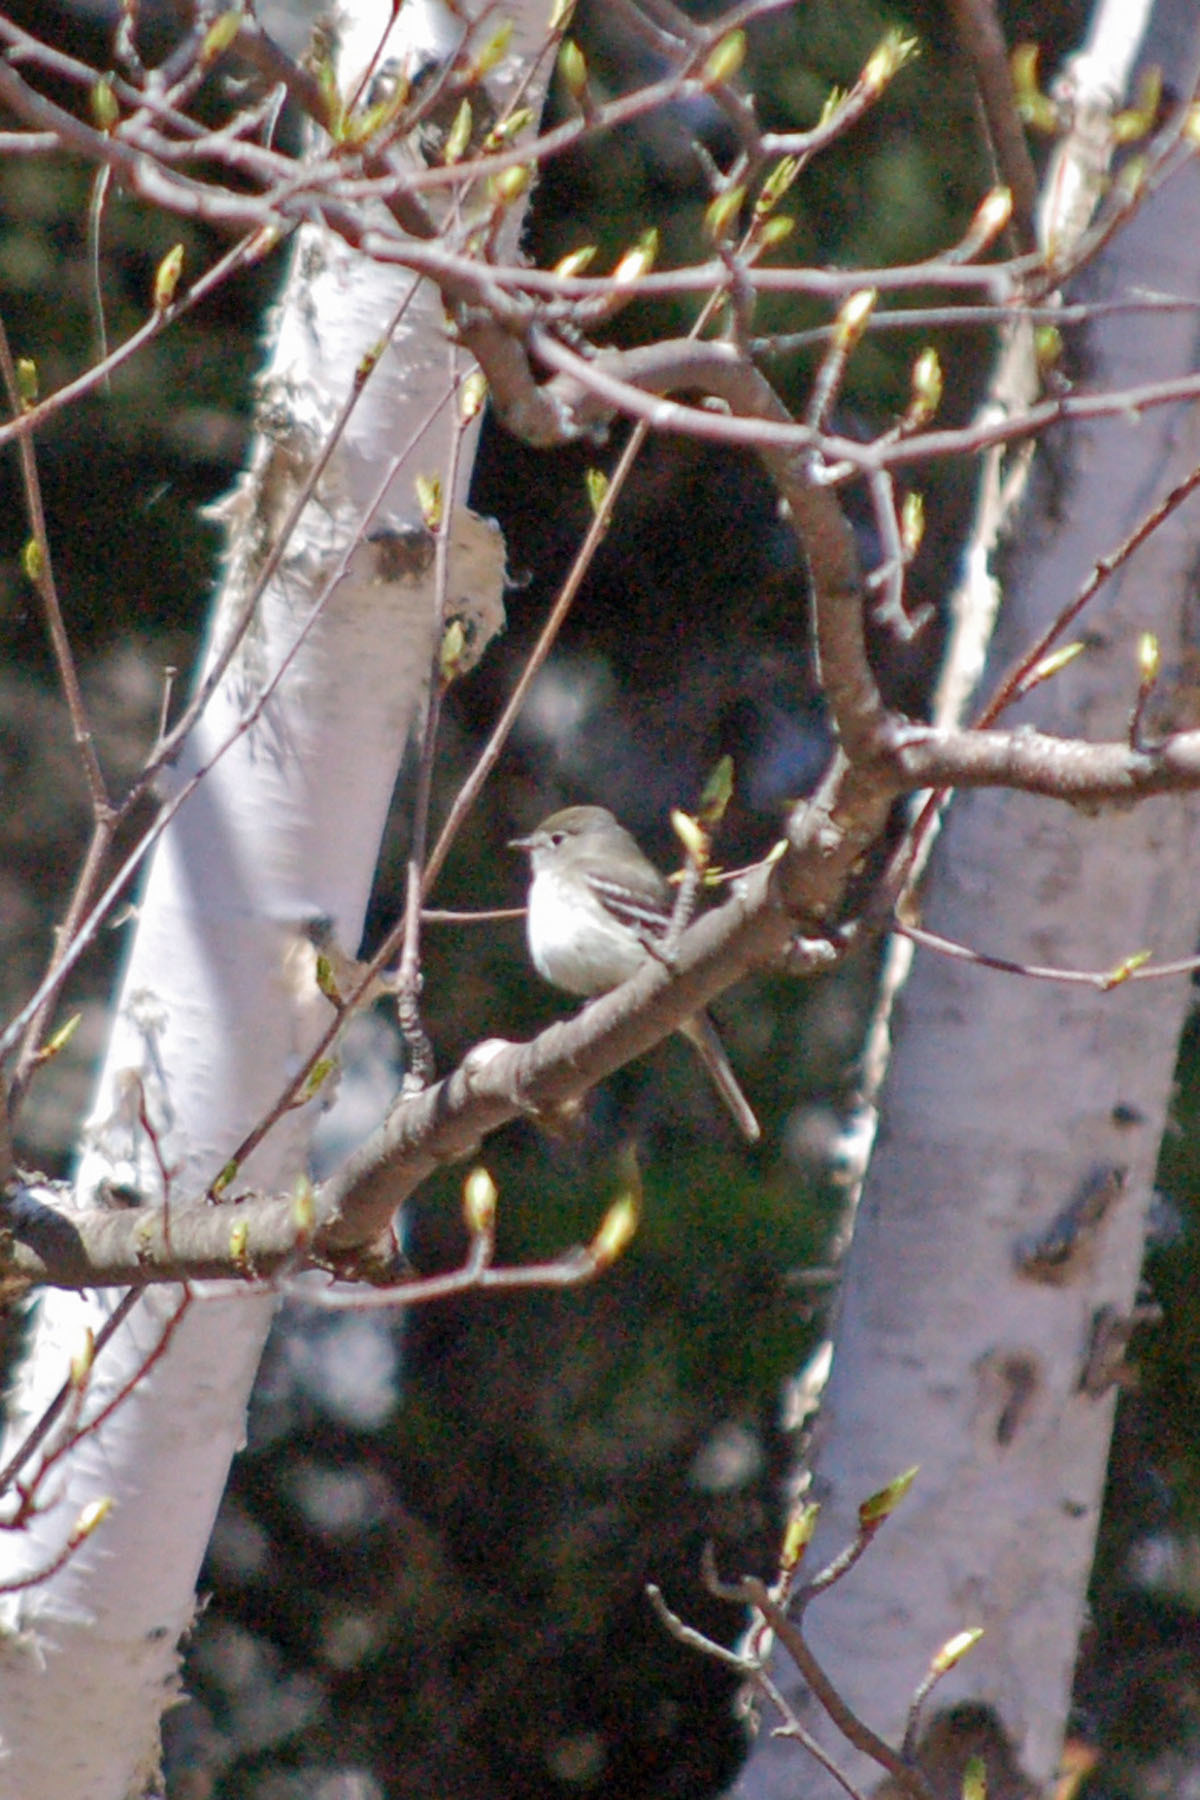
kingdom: Animalia
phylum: Chordata
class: Aves
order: Passeriformes
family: Tyrannidae
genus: Empidonax
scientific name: Empidonax alnorum
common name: Alder flycatcher
